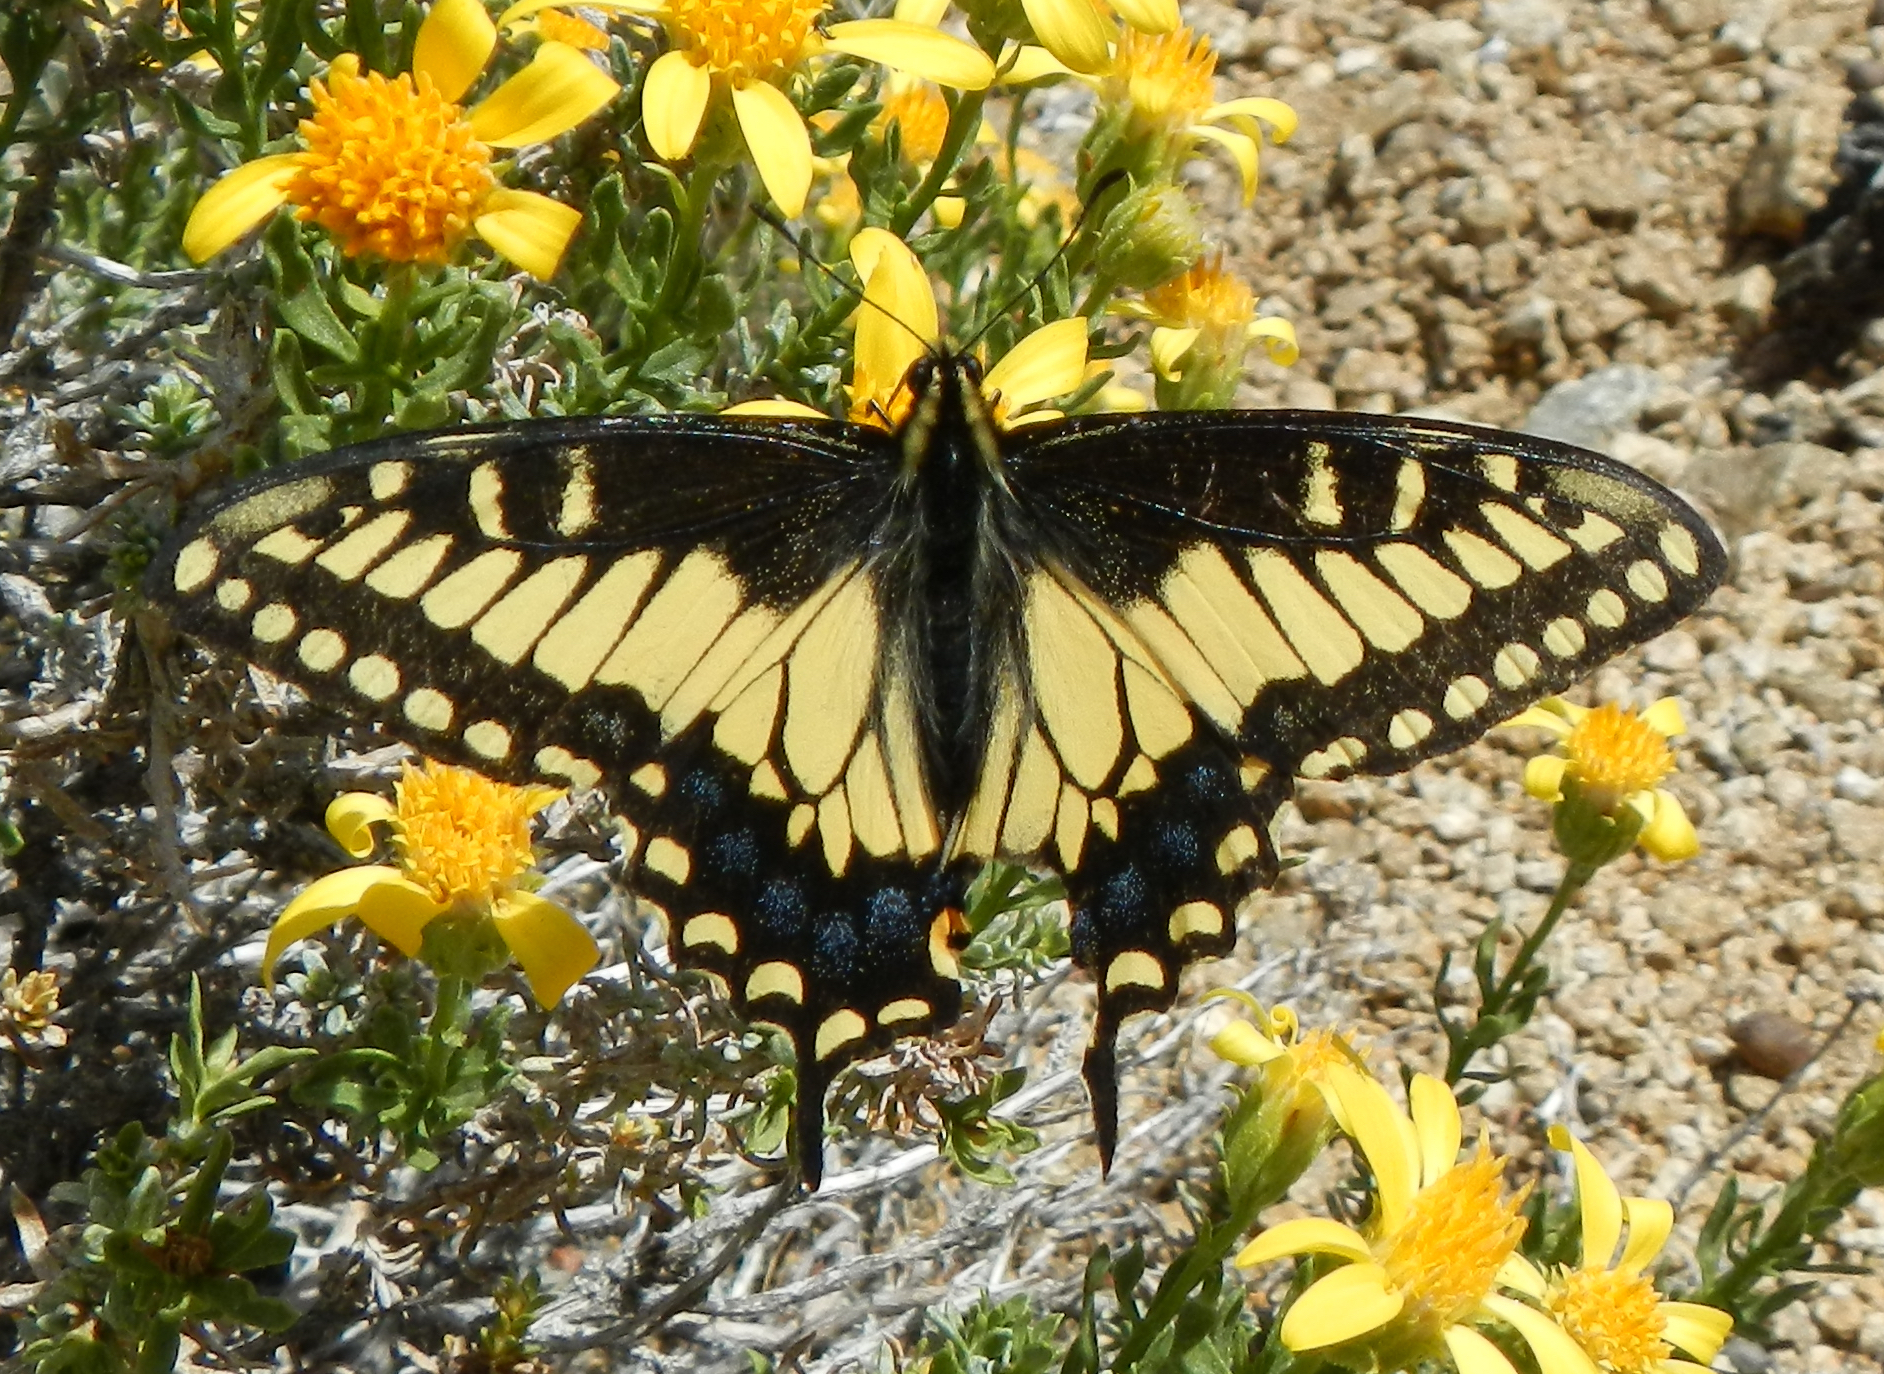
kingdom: Animalia
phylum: Arthropoda
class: Insecta
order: Lepidoptera
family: Papilionidae
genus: Papilio
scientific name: Papilio polyxenes
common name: Black swallowtail
